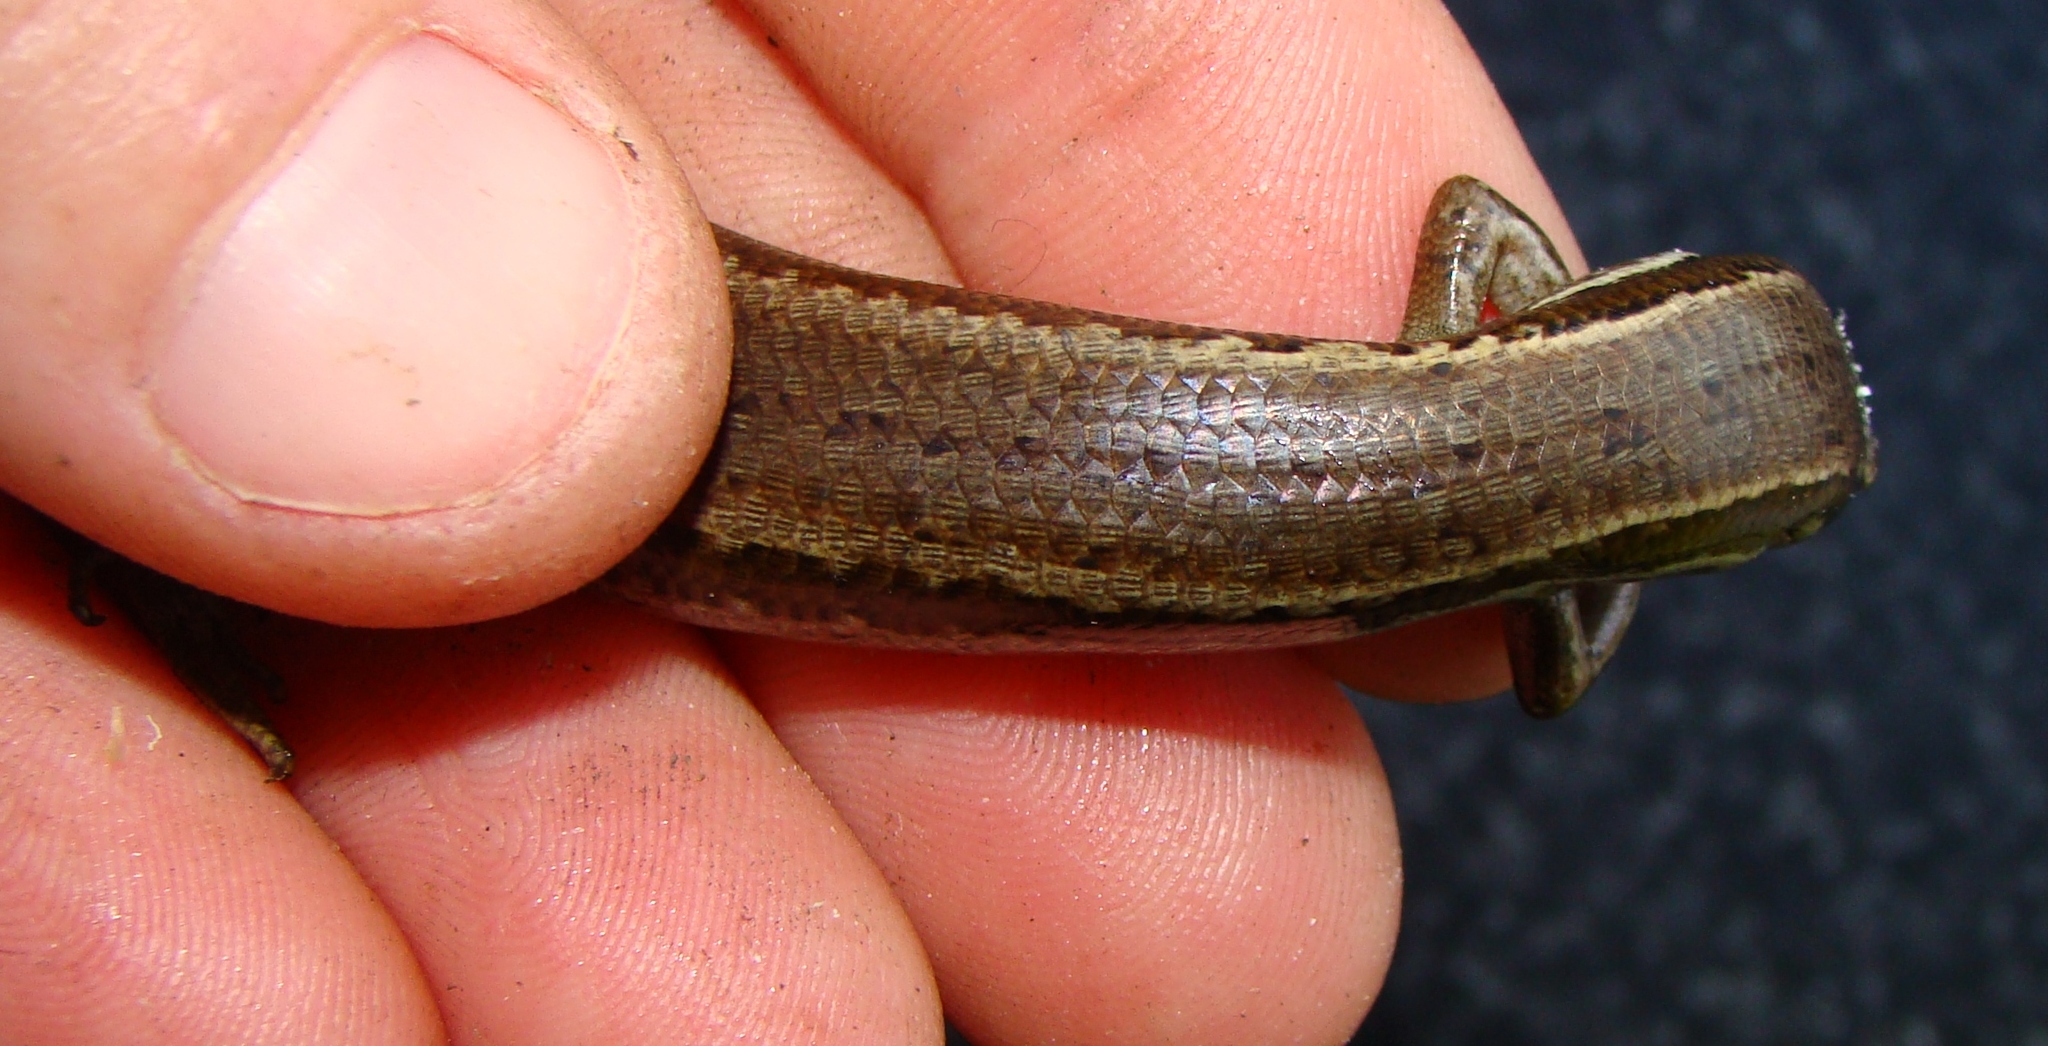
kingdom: Animalia
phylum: Chordata
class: Squamata
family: Scincidae
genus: Oligosoma
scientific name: Oligosoma polychroma
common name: Common new zealand skink
